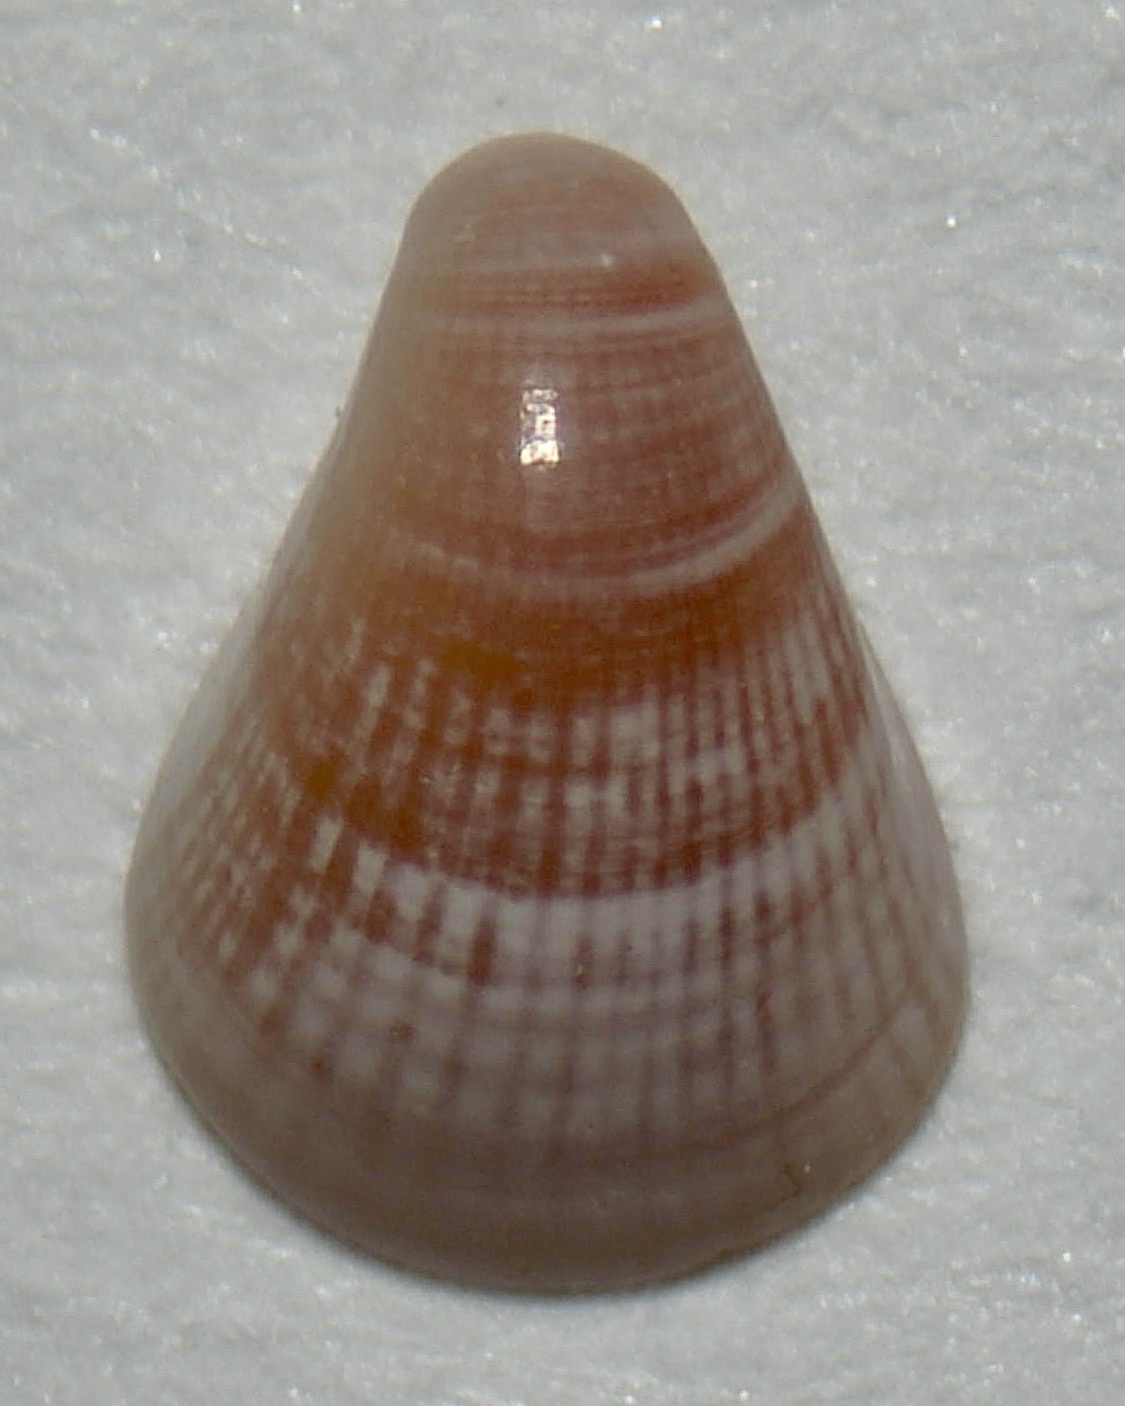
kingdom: Animalia
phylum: Mollusca
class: Bivalvia
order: Venerida
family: Veneridae
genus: Parastarte
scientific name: Parastarte triquetra
